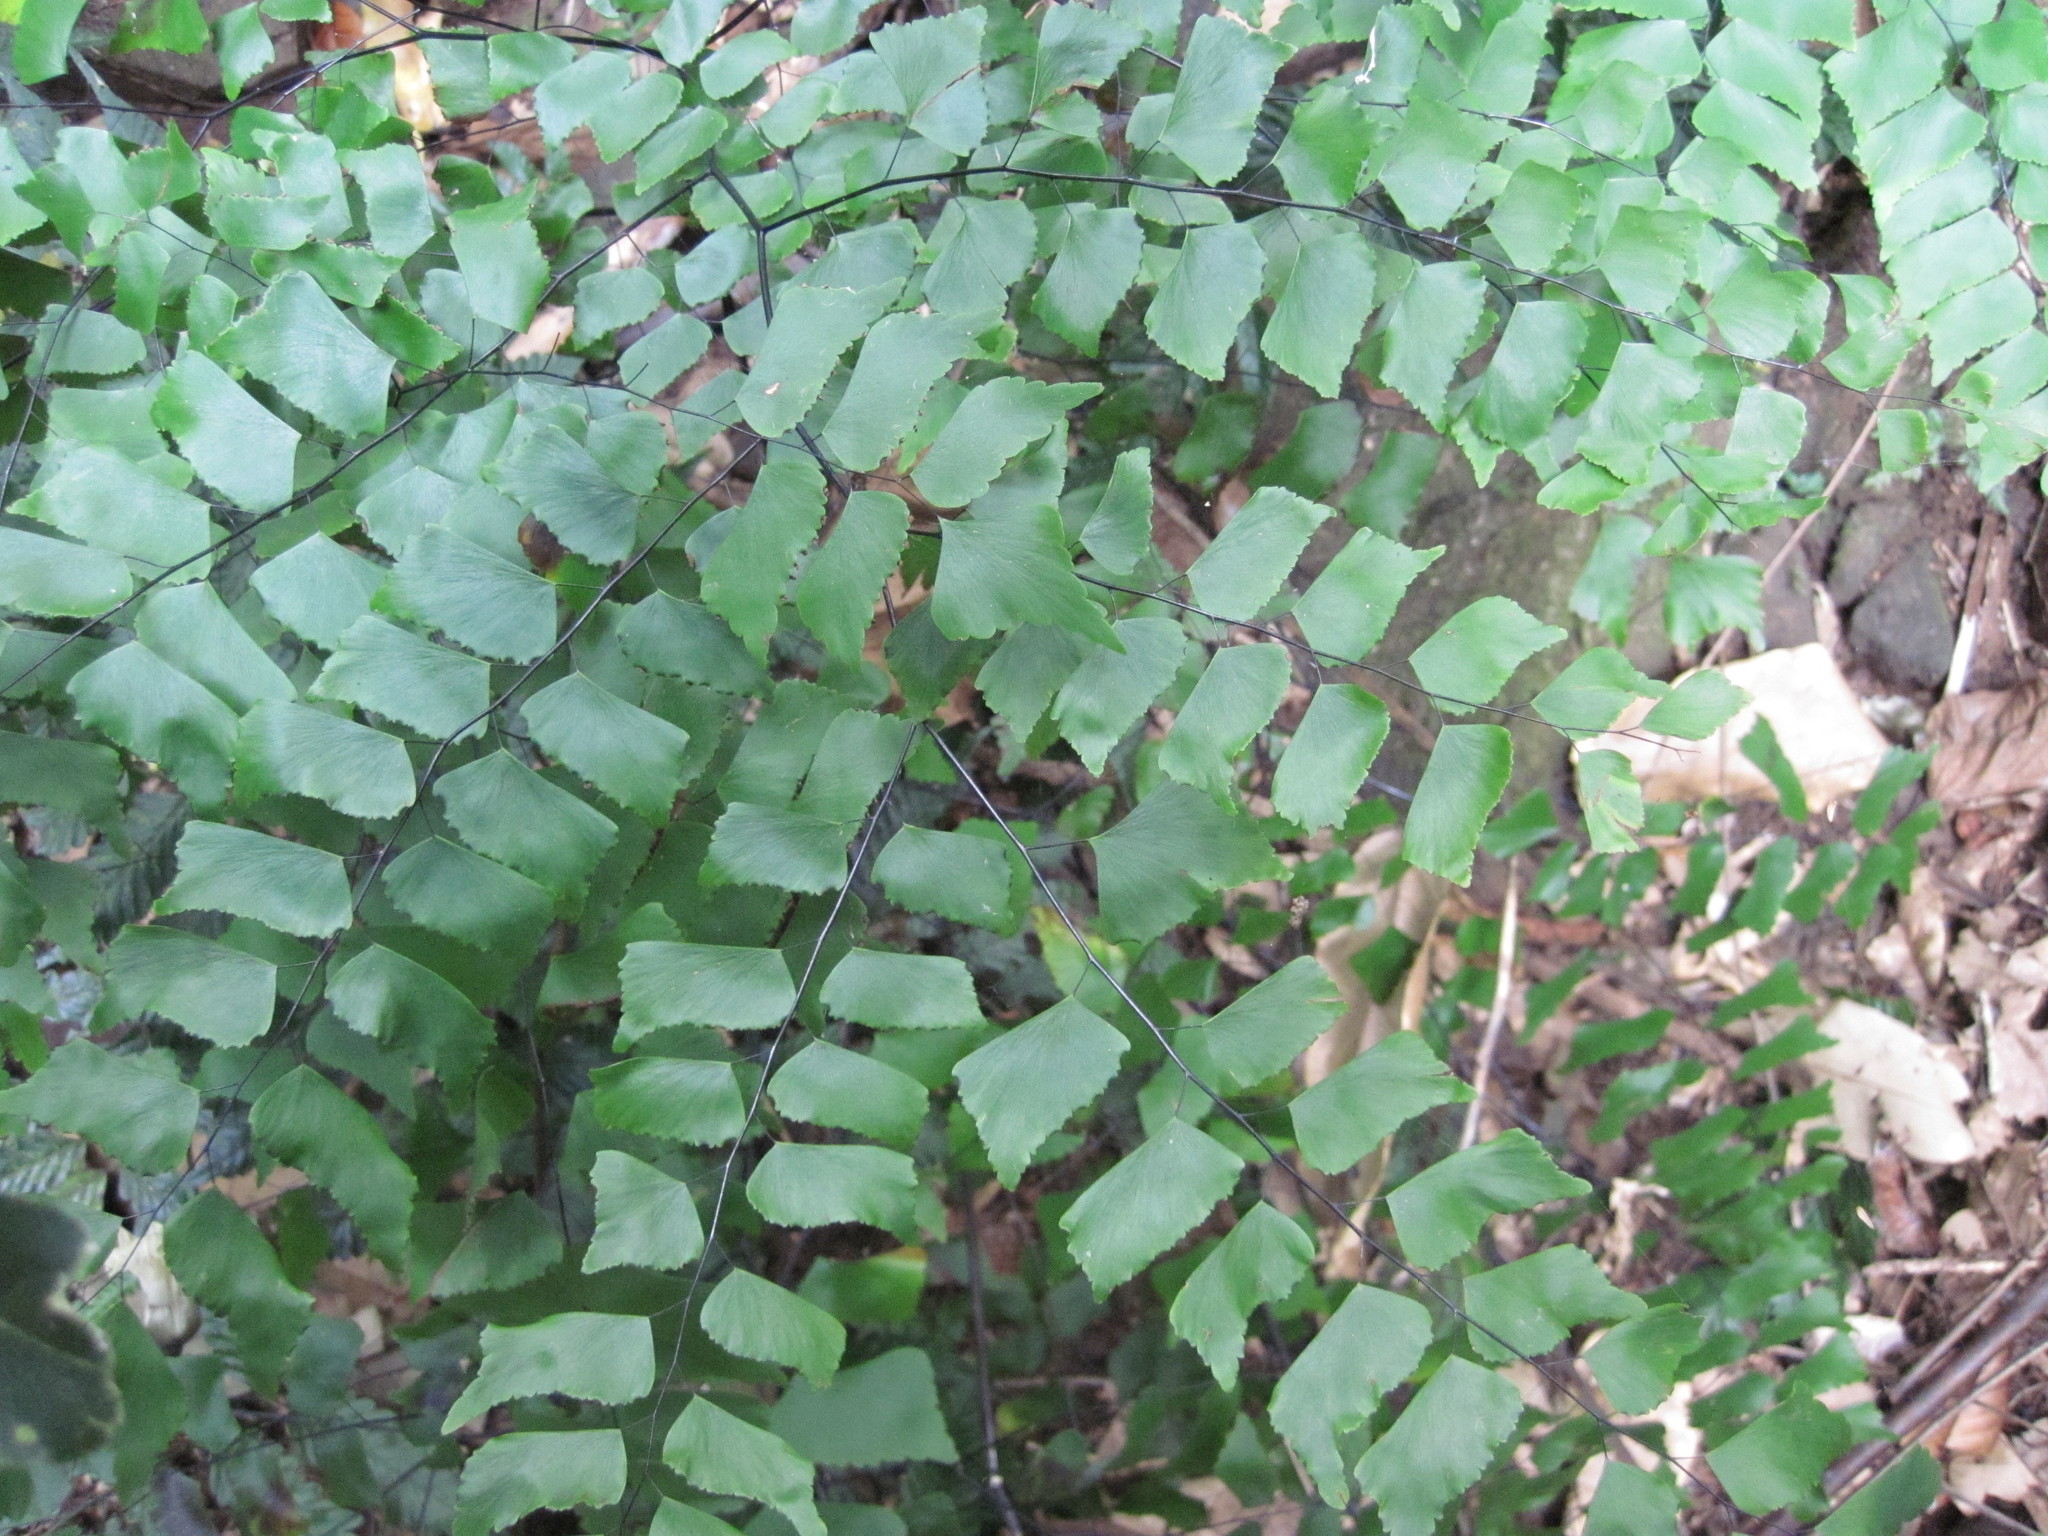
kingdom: Plantae
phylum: Tracheophyta
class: Polypodiopsida
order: Polypodiales
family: Pteridaceae
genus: Adiantum
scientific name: Adiantum trapeziforme
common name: Diamond maidenhair
